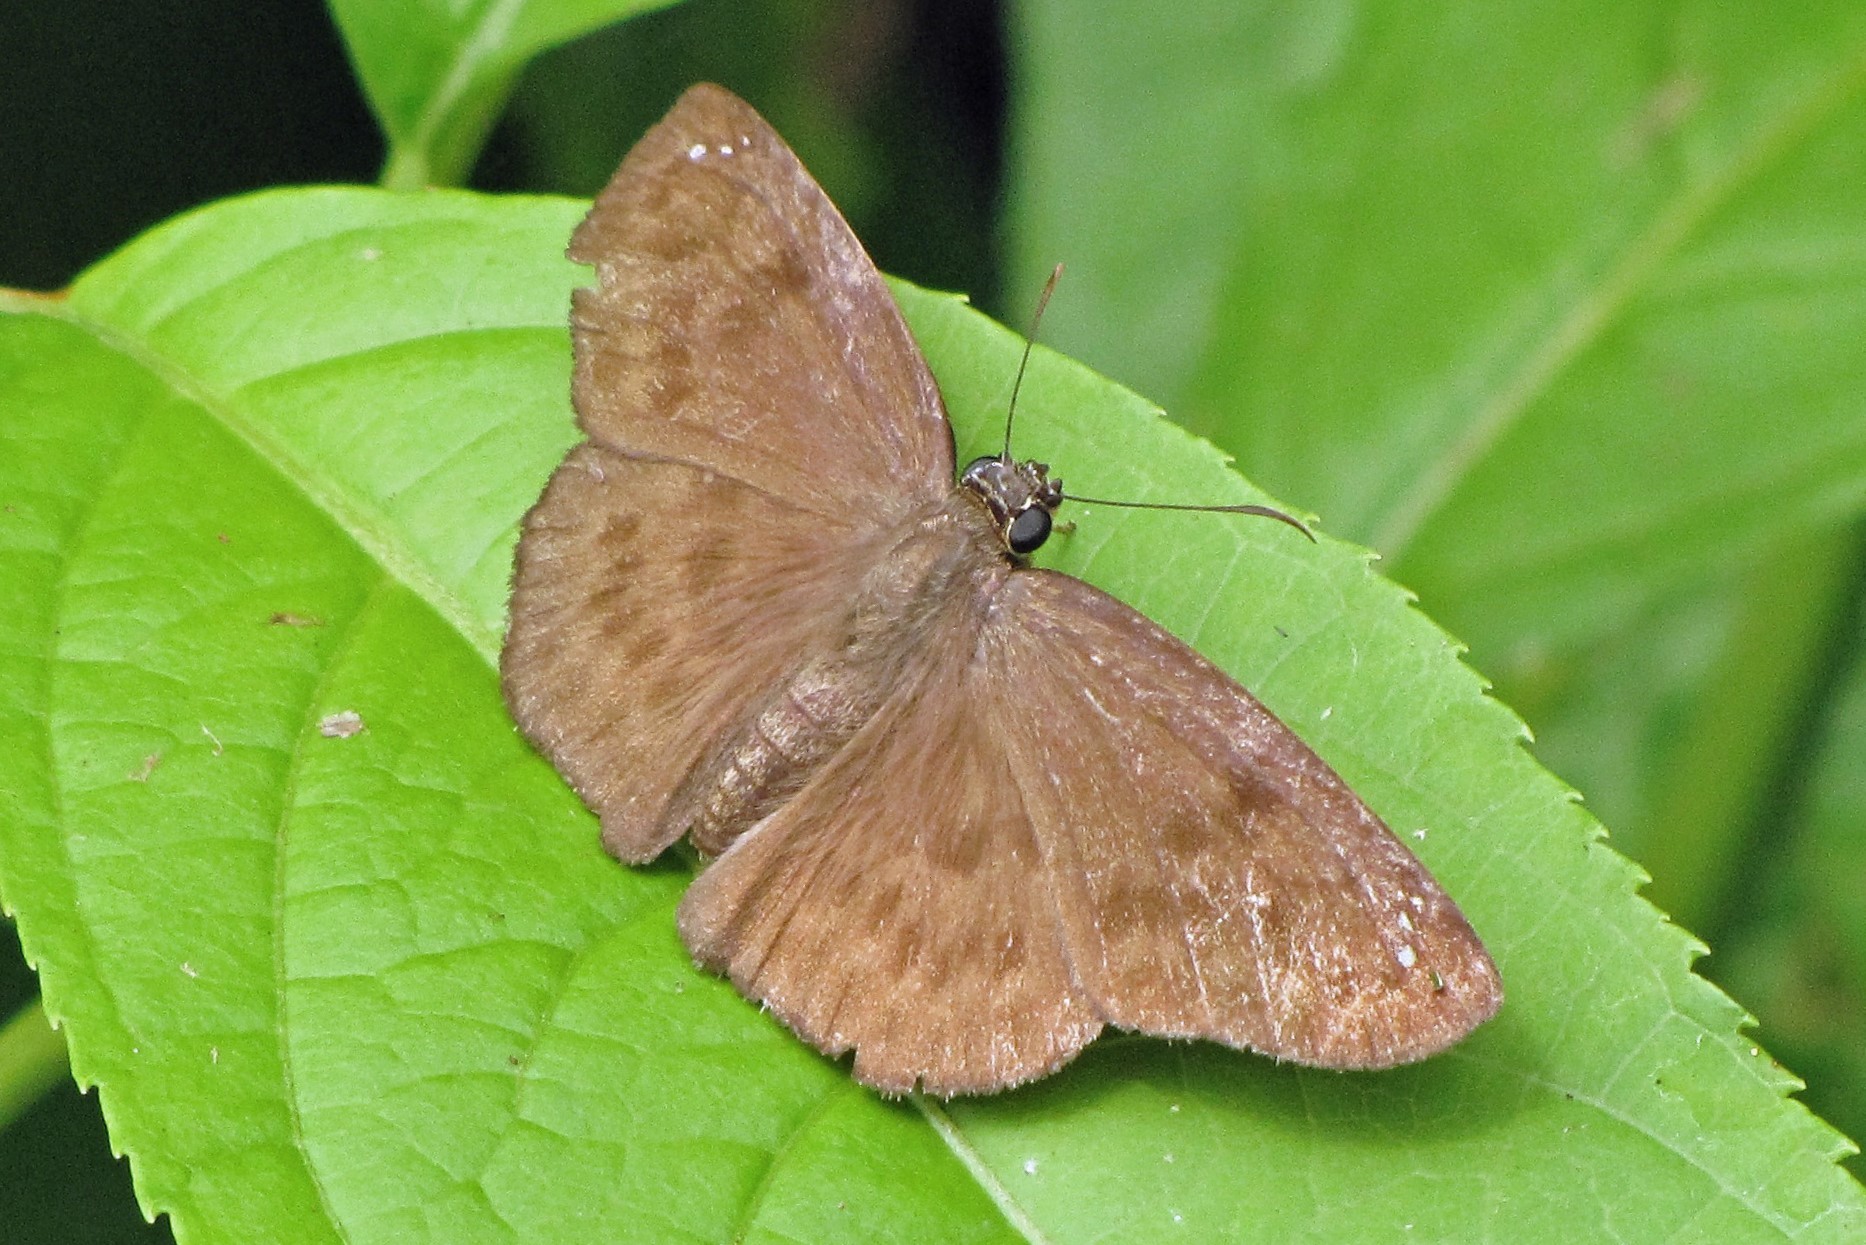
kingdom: Animalia
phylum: Arthropoda
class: Insecta
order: Lepidoptera
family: Hesperiidae
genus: Grais
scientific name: Grais stigmaticus
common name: Hermit skipper
